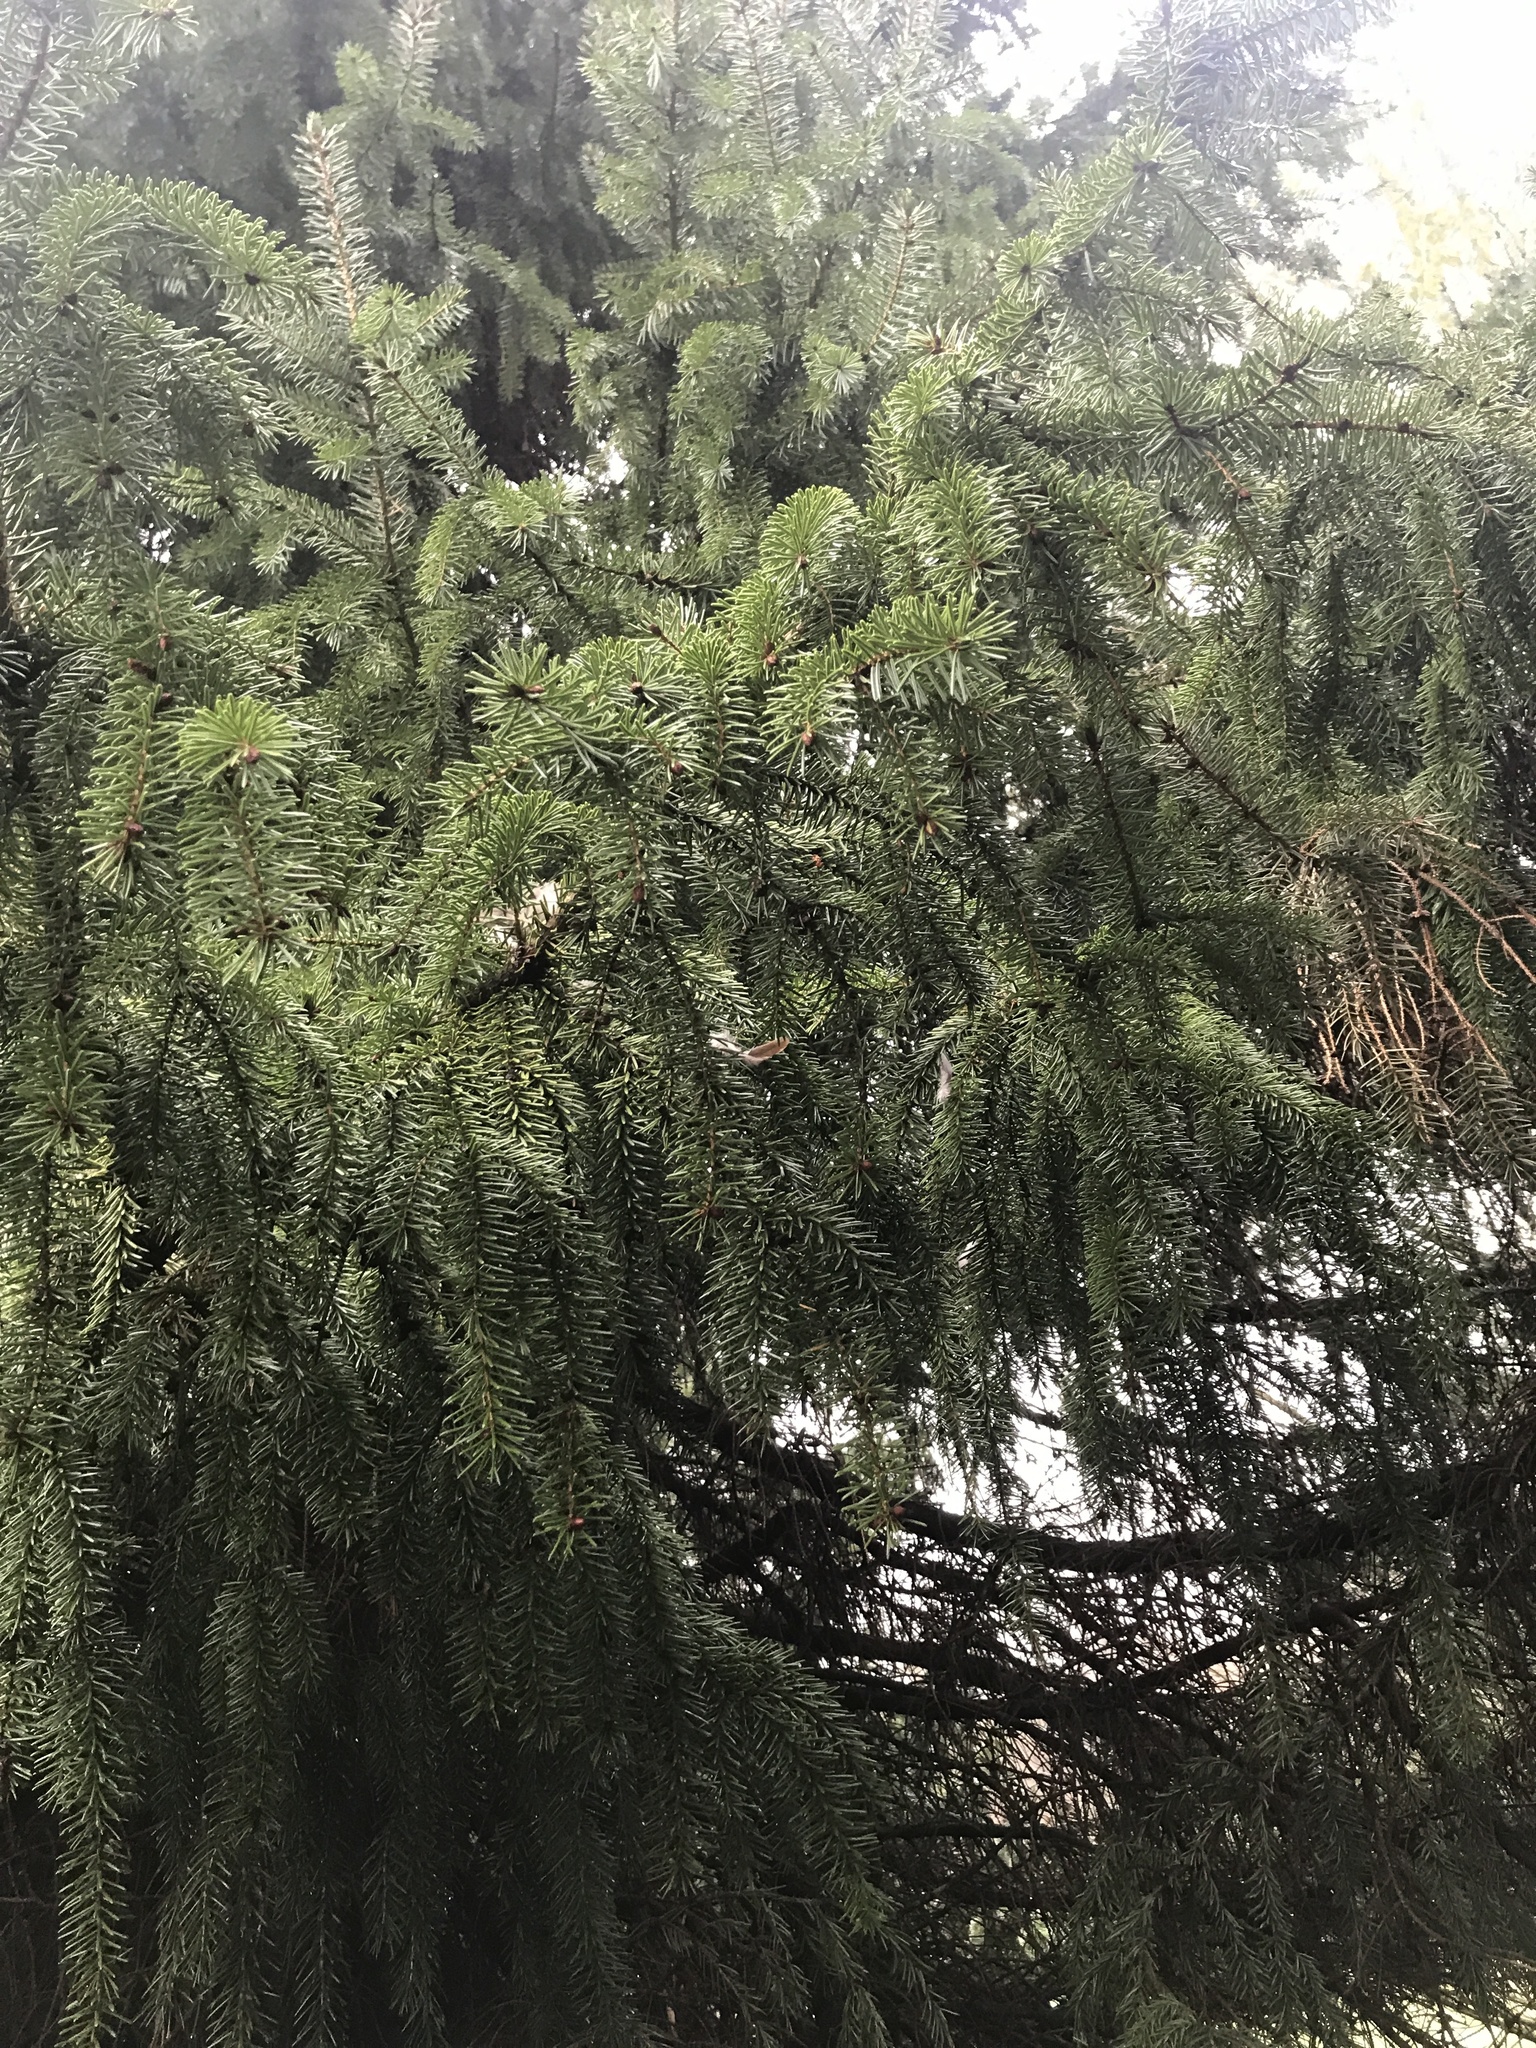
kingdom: Animalia
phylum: Chordata
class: Aves
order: Columbiformes
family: Columbidae
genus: Zenaida
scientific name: Zenaida macroura
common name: Mourning dove
